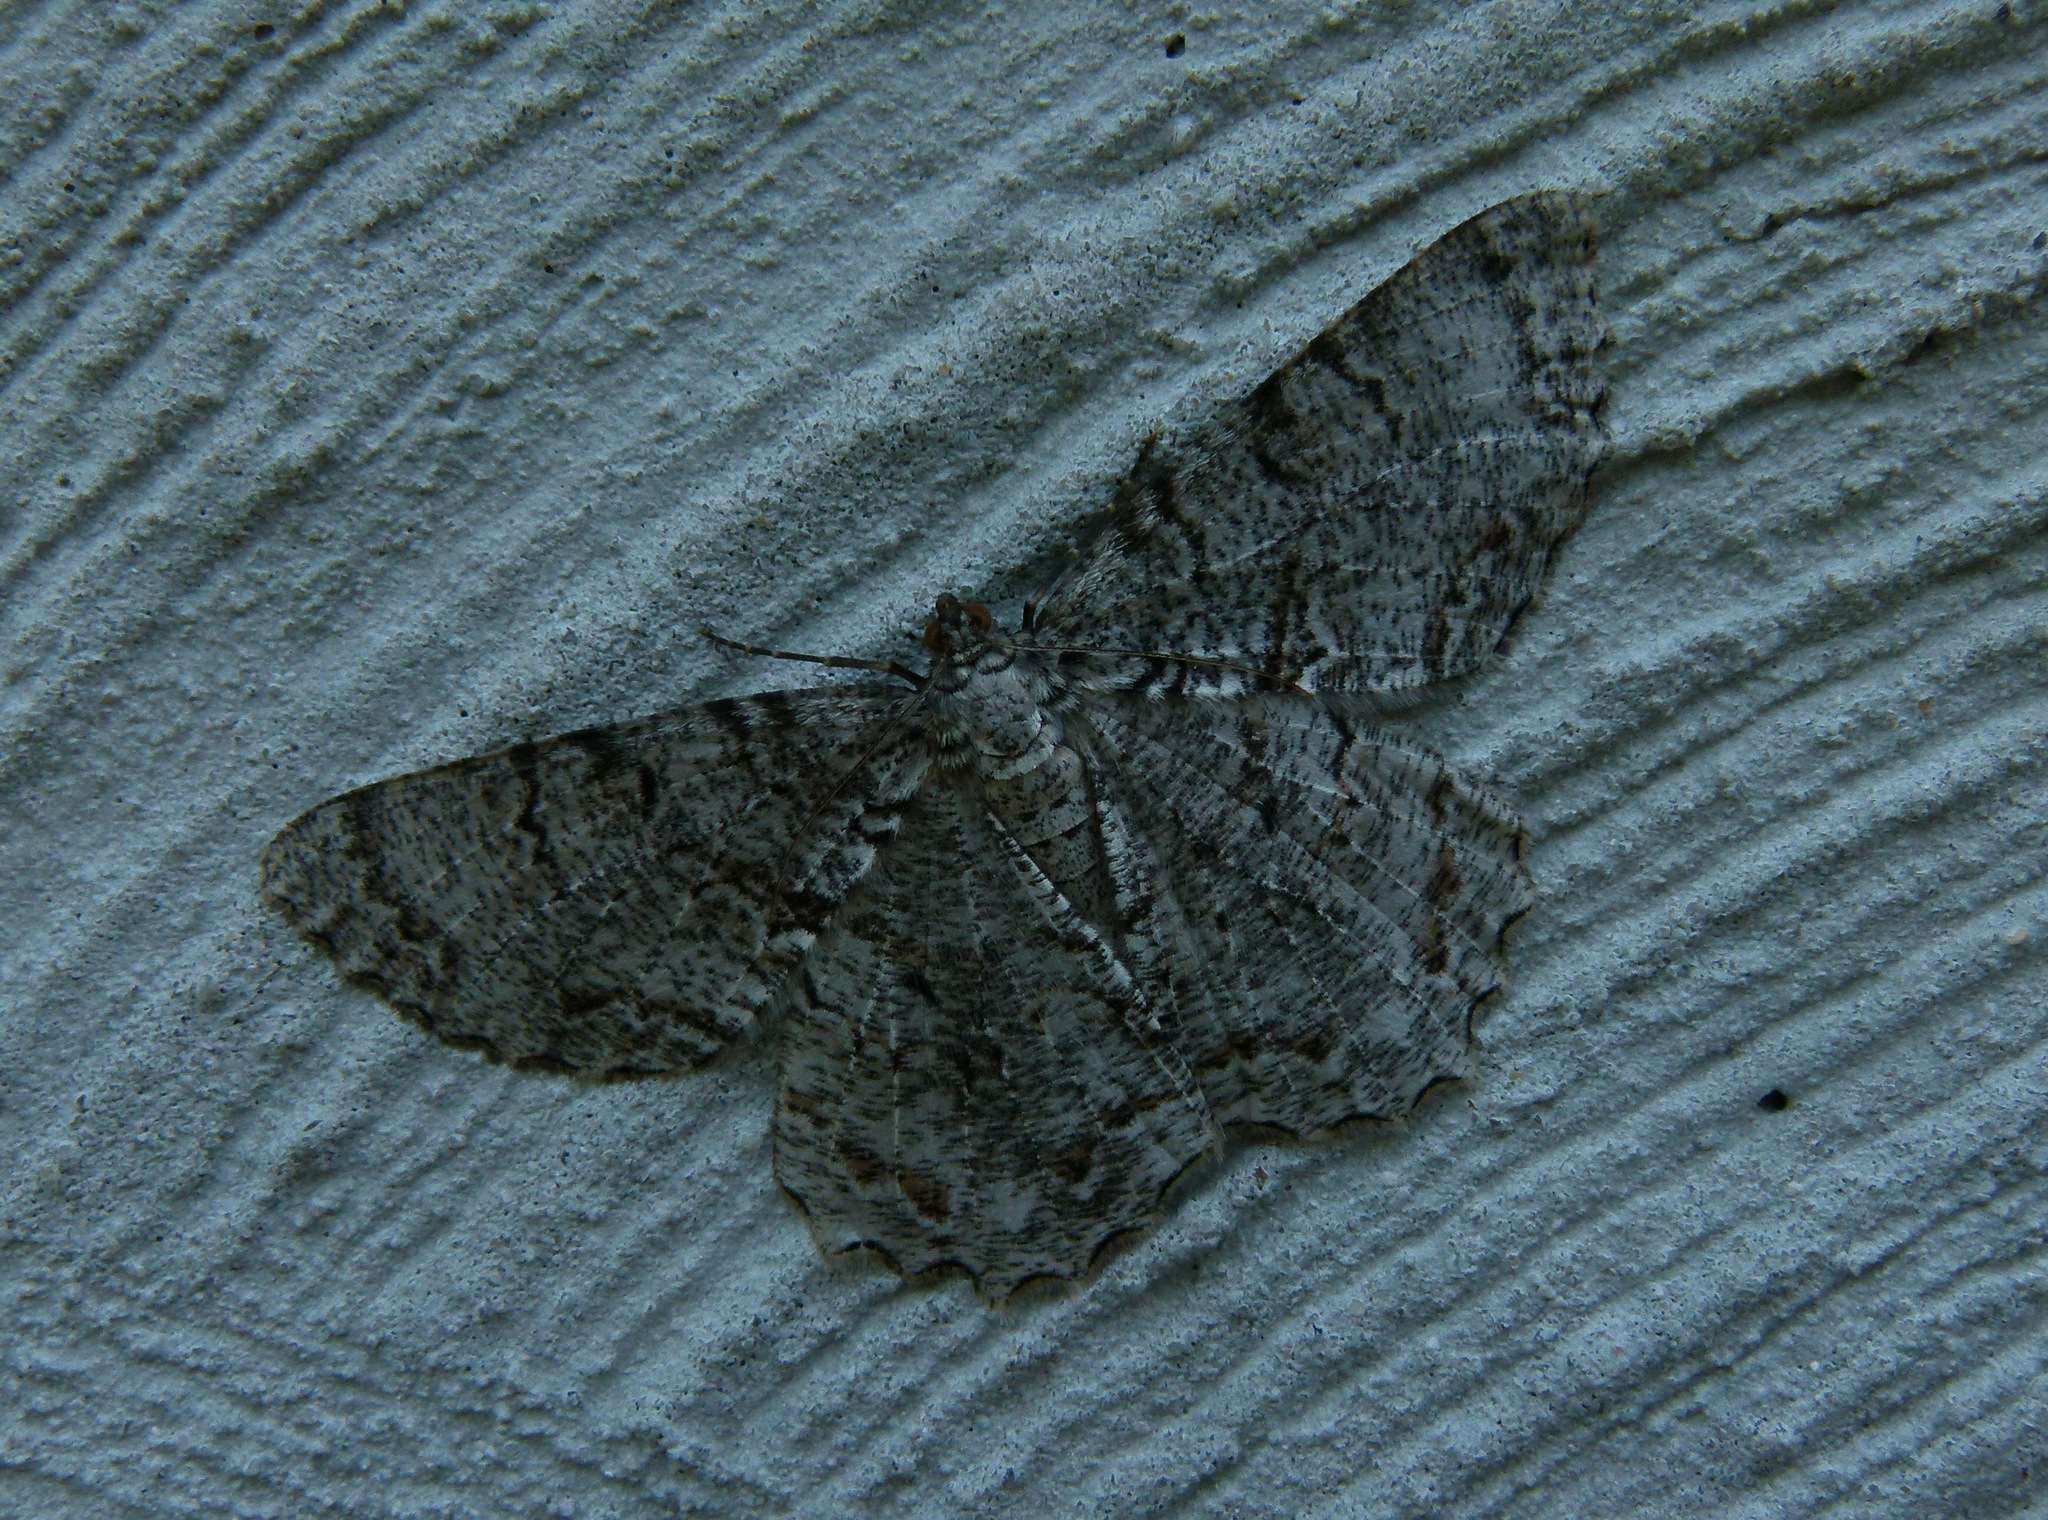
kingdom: Animalia
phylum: Arthropoda
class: Insecta
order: Lepidoptera
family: Geometridae
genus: Epimecis
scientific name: Epimecis hortaria
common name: Tulip-tree beauty
